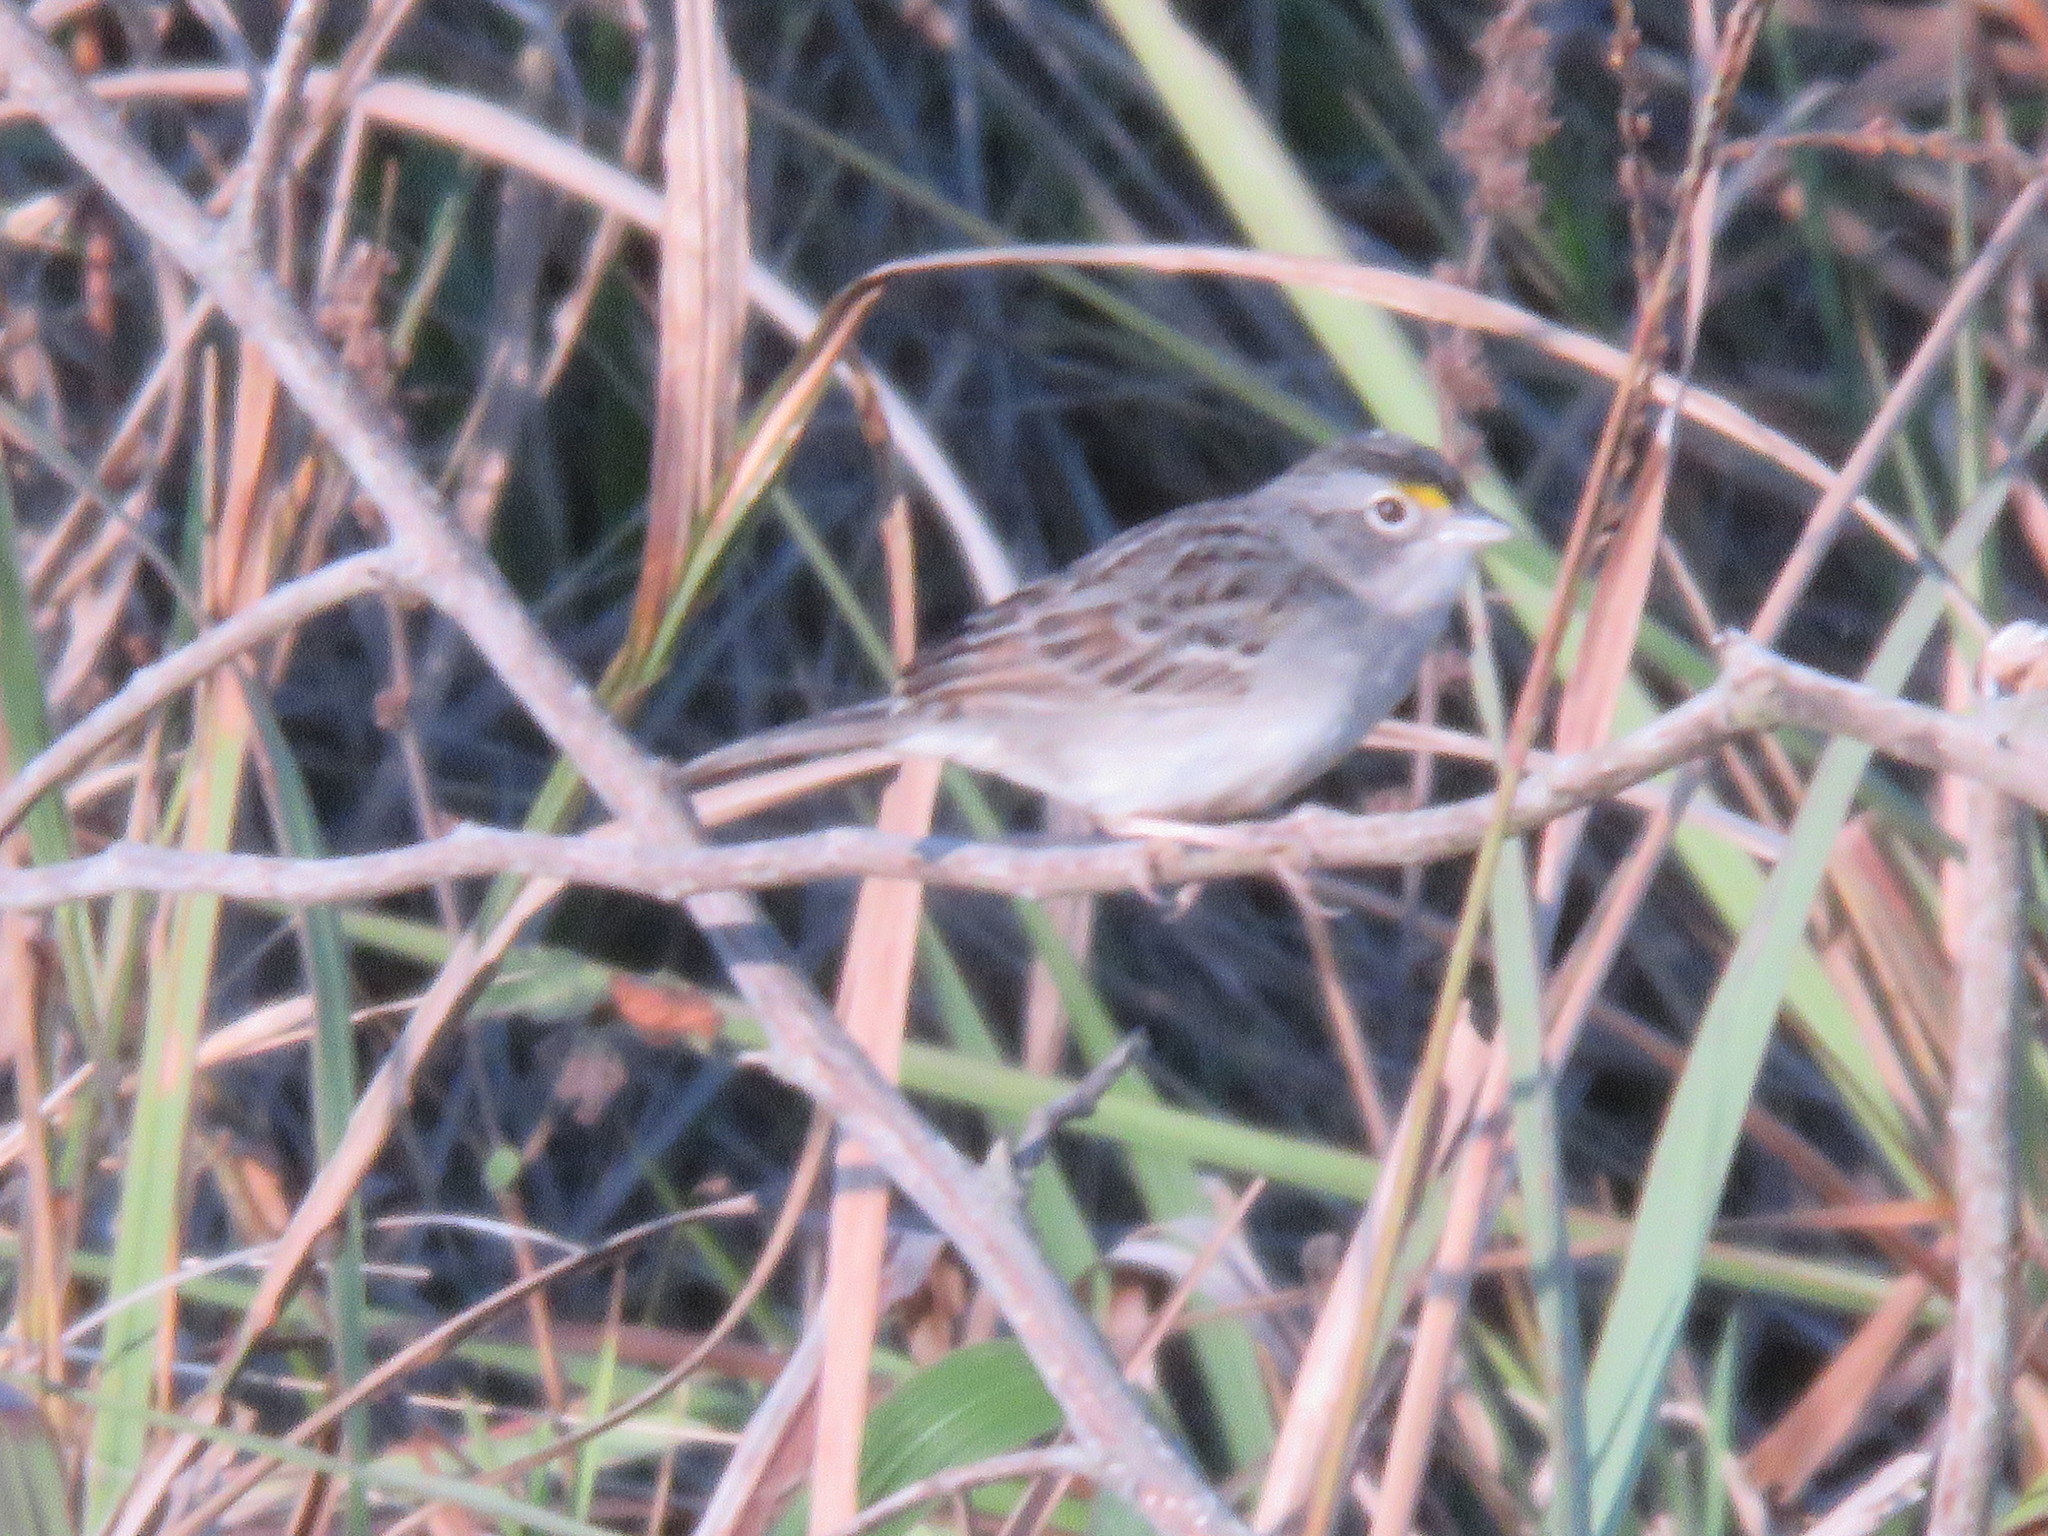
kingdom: Animalia
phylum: Chordata
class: Aves
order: Passeriformes
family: Passerellidae
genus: Ammodramus
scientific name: Ammodramus humeralis
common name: Grassland sparrow
